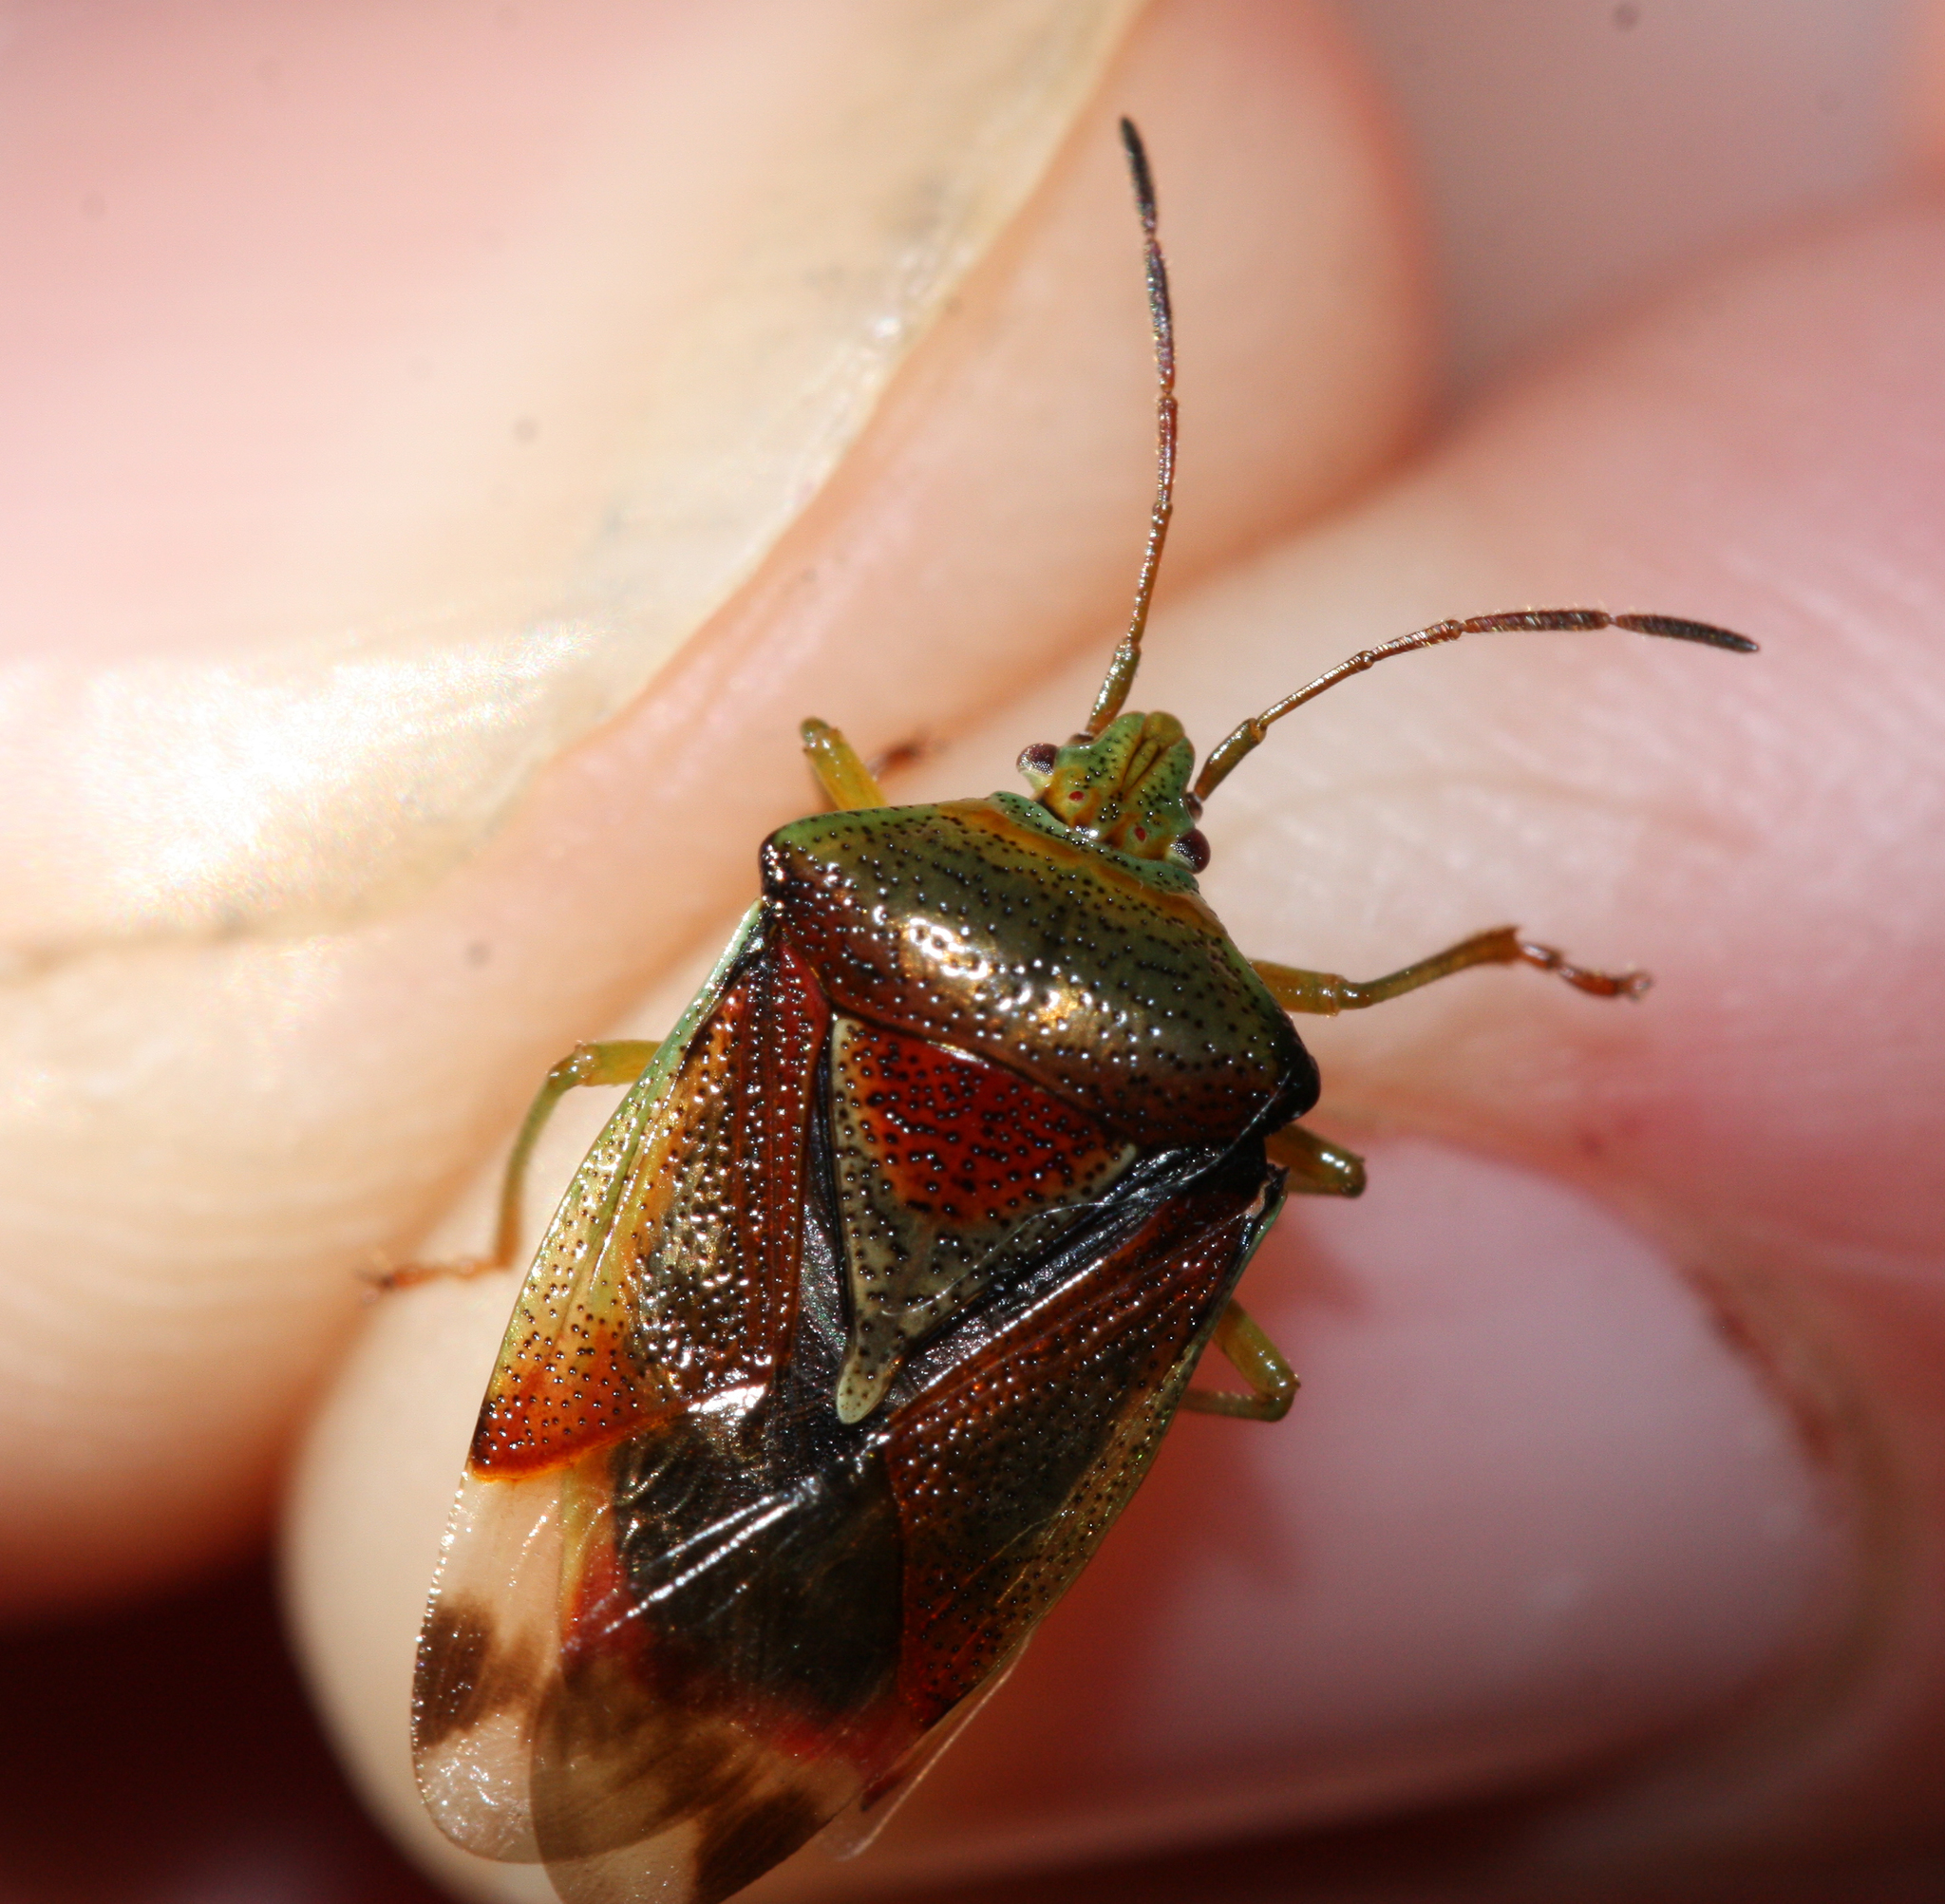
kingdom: Animalia
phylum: Arthropoda
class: Insecta
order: Hemiptera
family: Acanthosomatidae
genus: Elasmostethus
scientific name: Elasmostethus interstinctus
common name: Birch shieldbug
